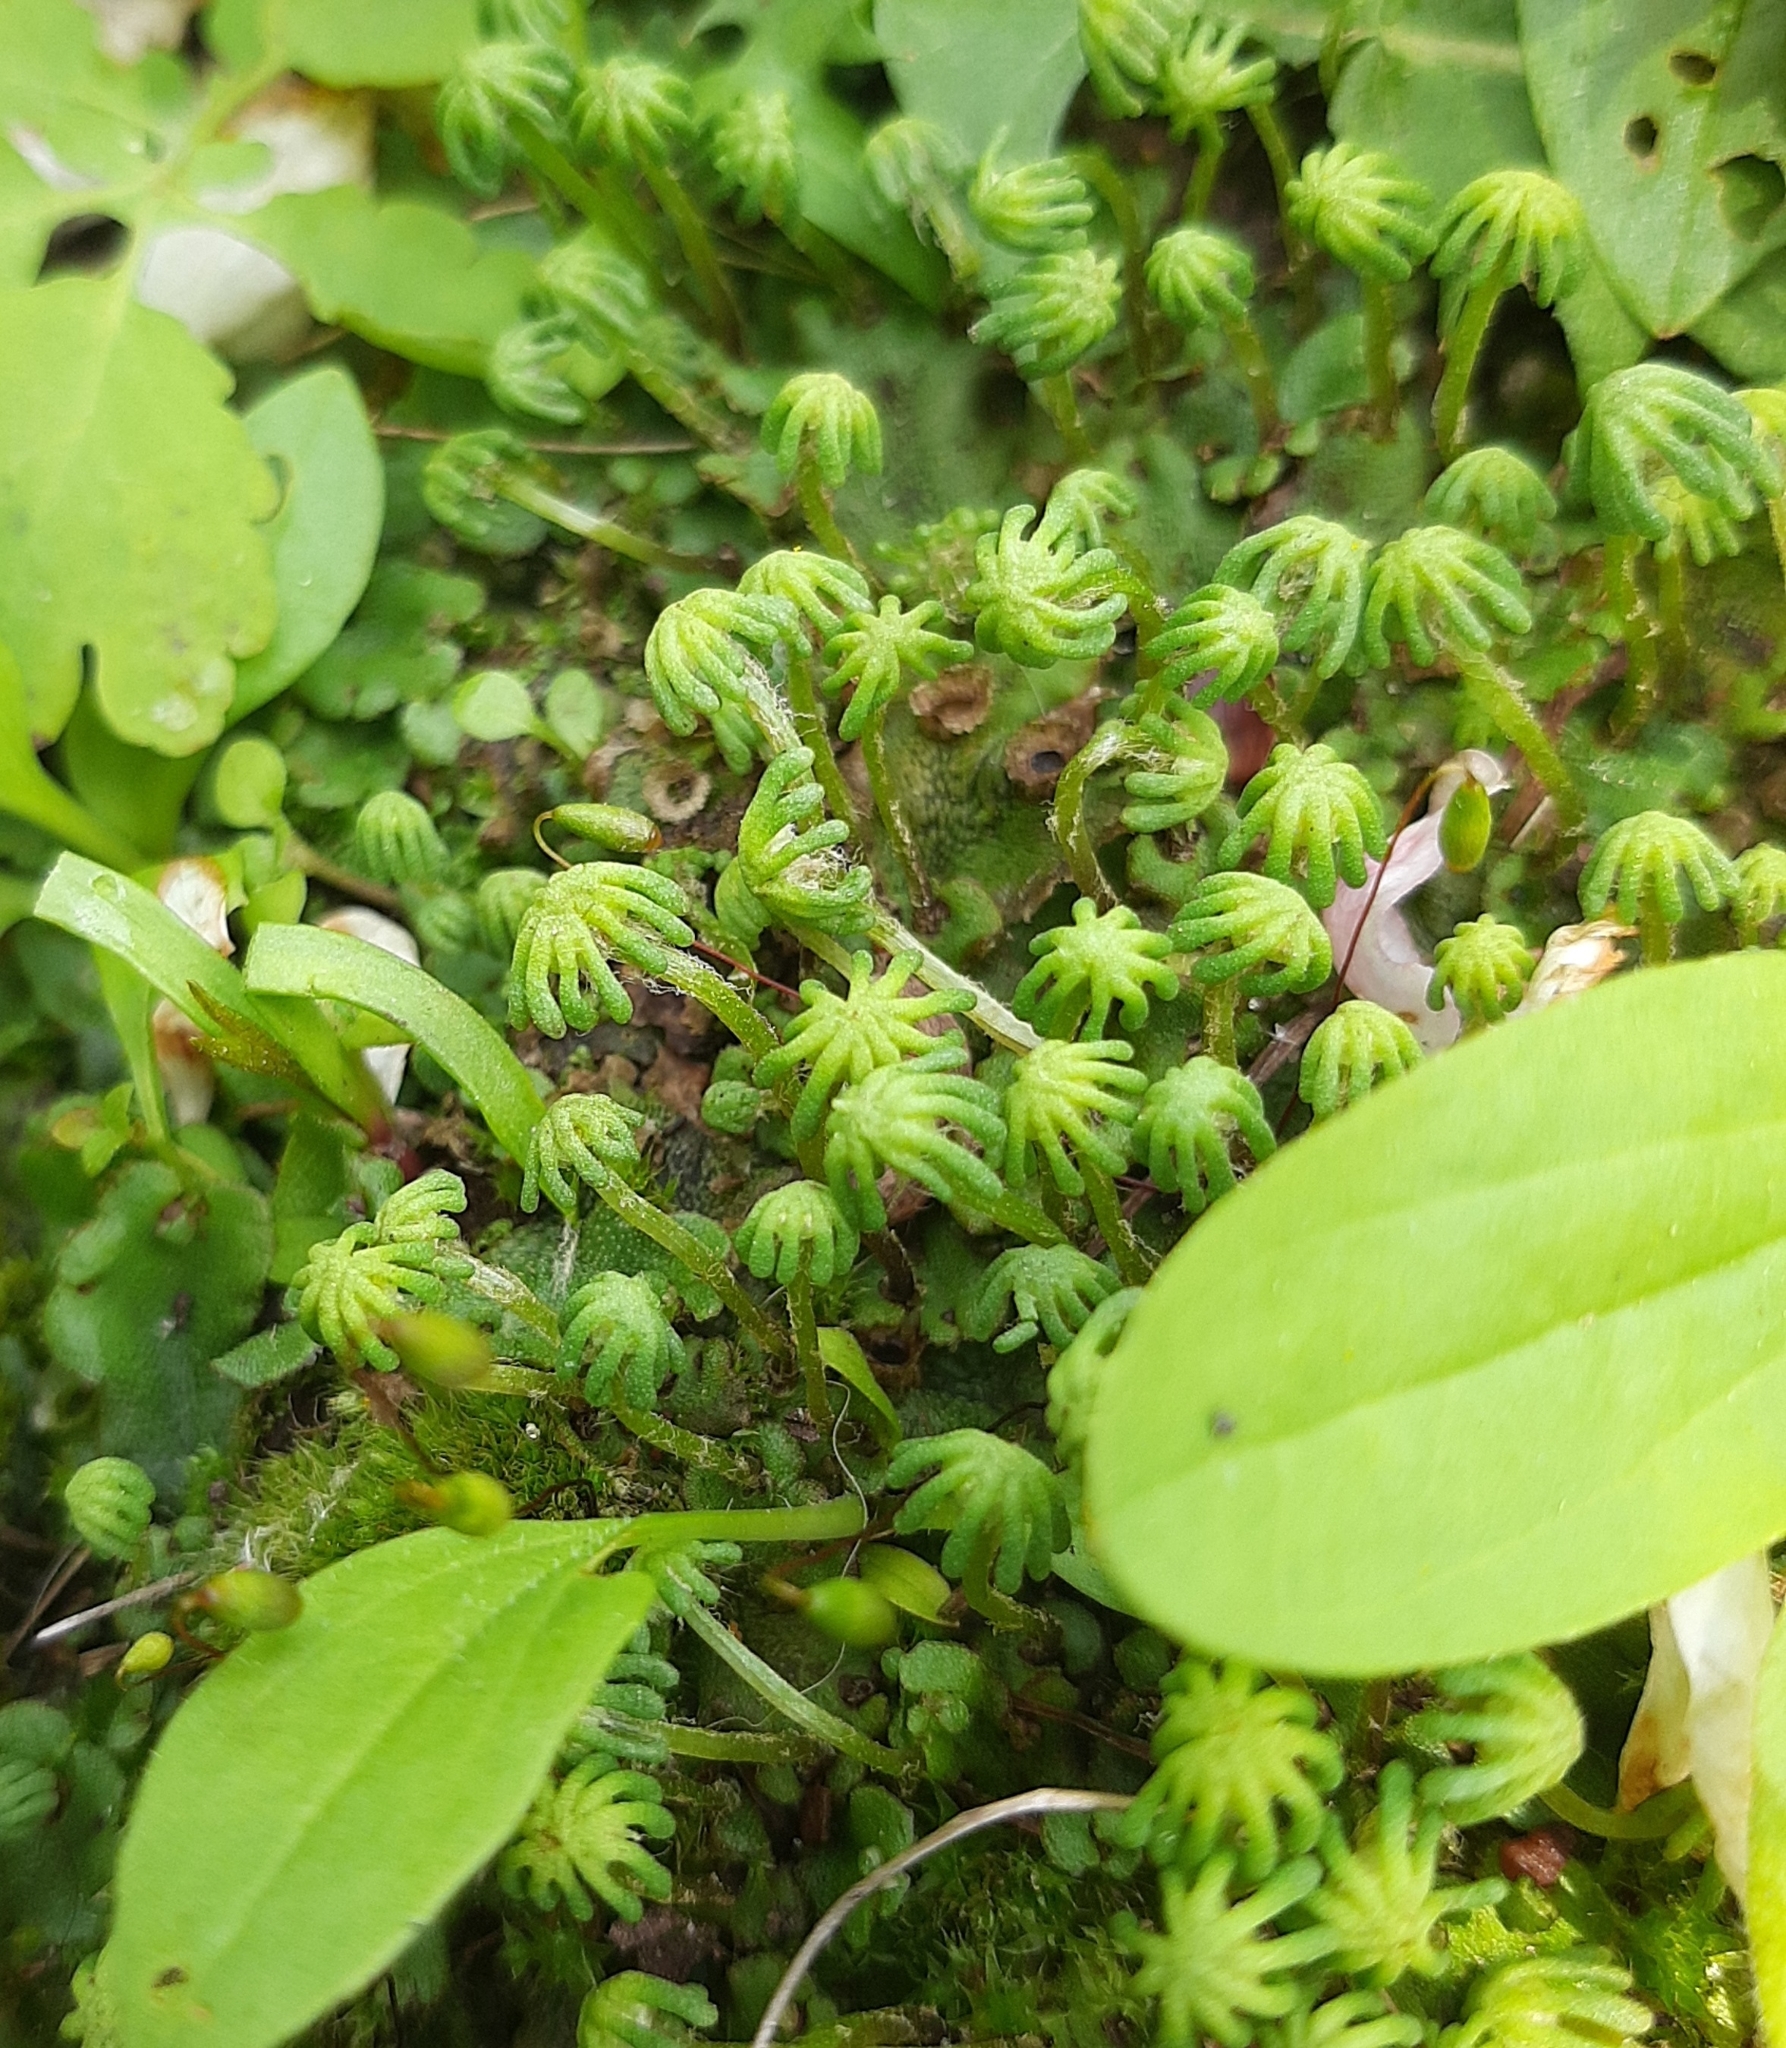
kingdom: Plantae
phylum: Marchantiophyta
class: Marchantiopsida
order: Marchantiales
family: Marchantiaceae
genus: Marchantia
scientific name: Marchantia polymorpha
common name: Common liverwort
